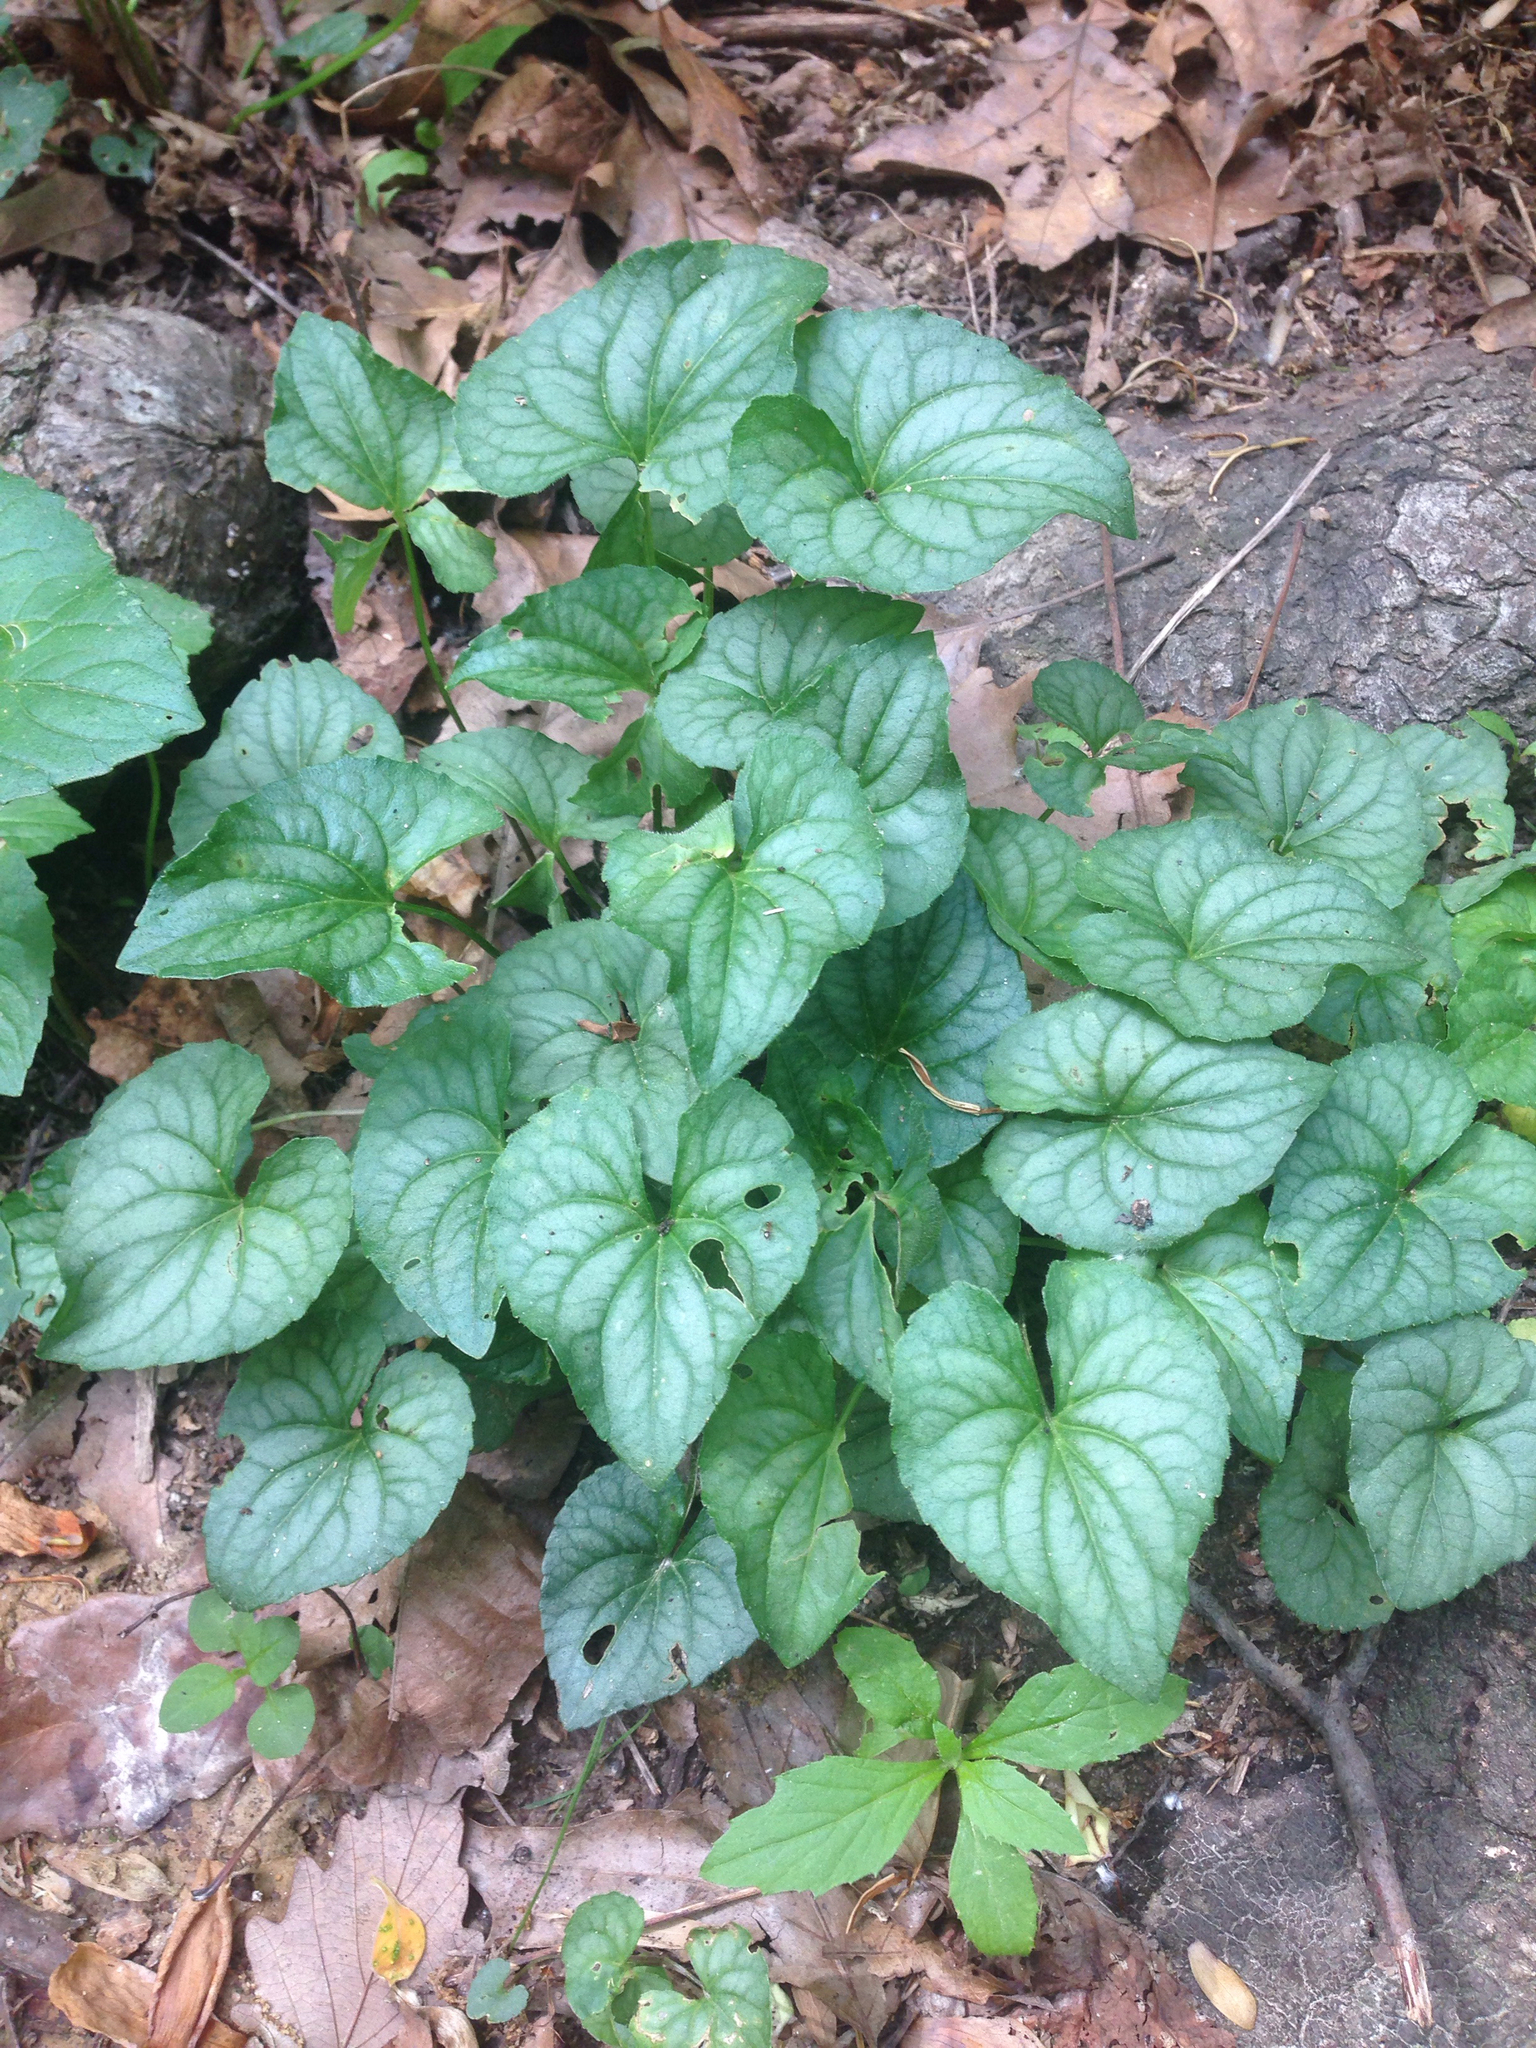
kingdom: Plantae
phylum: Tracheophyta
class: Magnoliopsida
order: Malpighiales
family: Violaceae
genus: Viola
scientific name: Viola hirsutula
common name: Southern wood violet
